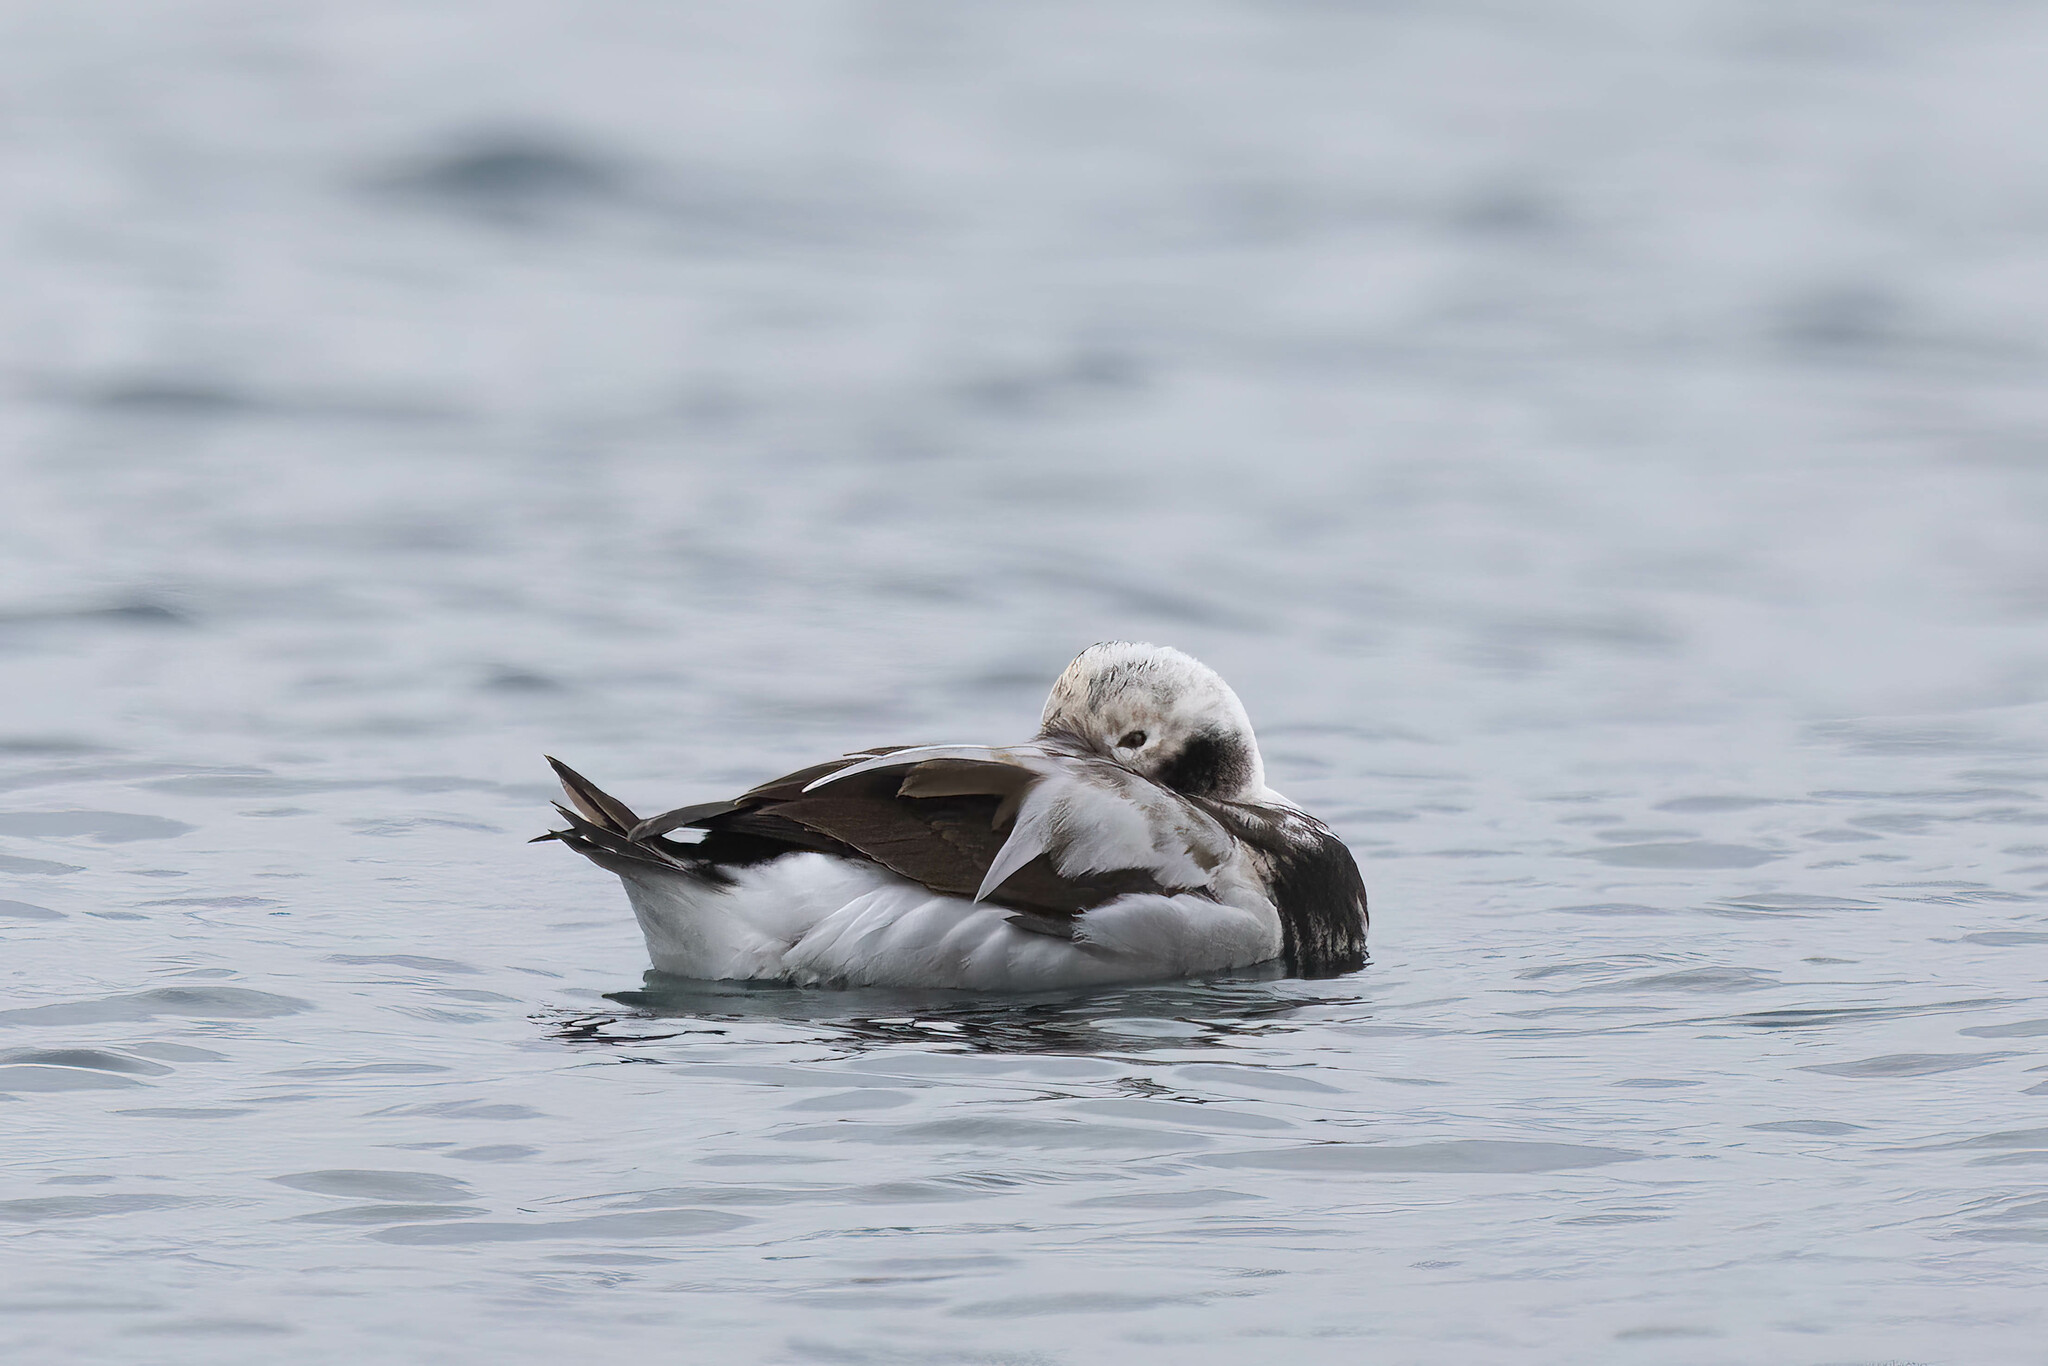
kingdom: Animalia
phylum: Chordata
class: Aves
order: Anseriformes
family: Anatidae
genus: Clangula
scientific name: Clangula hyemalis
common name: Long-tailed duck
